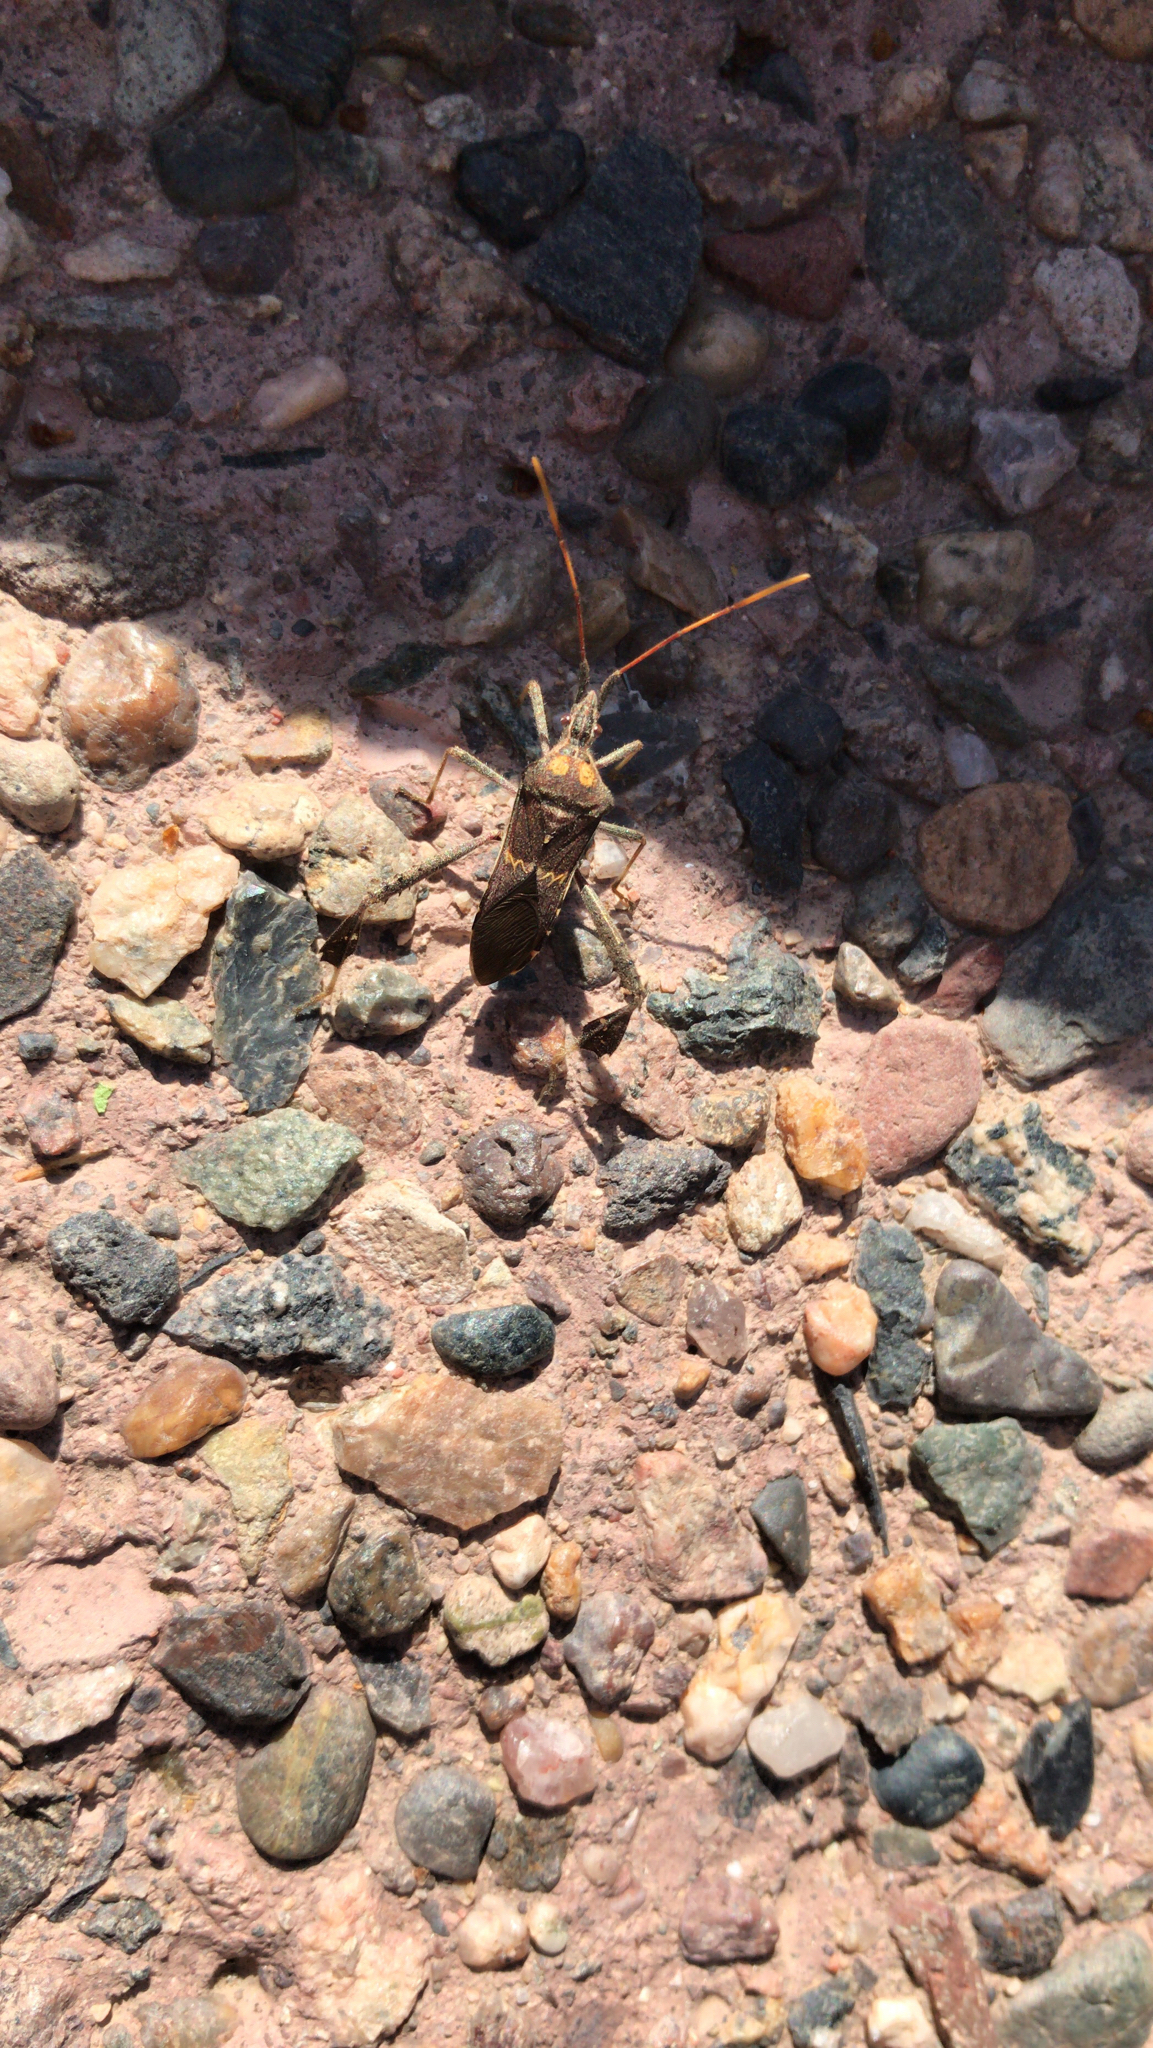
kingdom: Animalia
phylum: Arthropoda
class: Insecta
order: Hemiptera
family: Coreidae
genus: Leptoglossus
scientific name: Leptoglossus zonatus
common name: Large-legged bug
